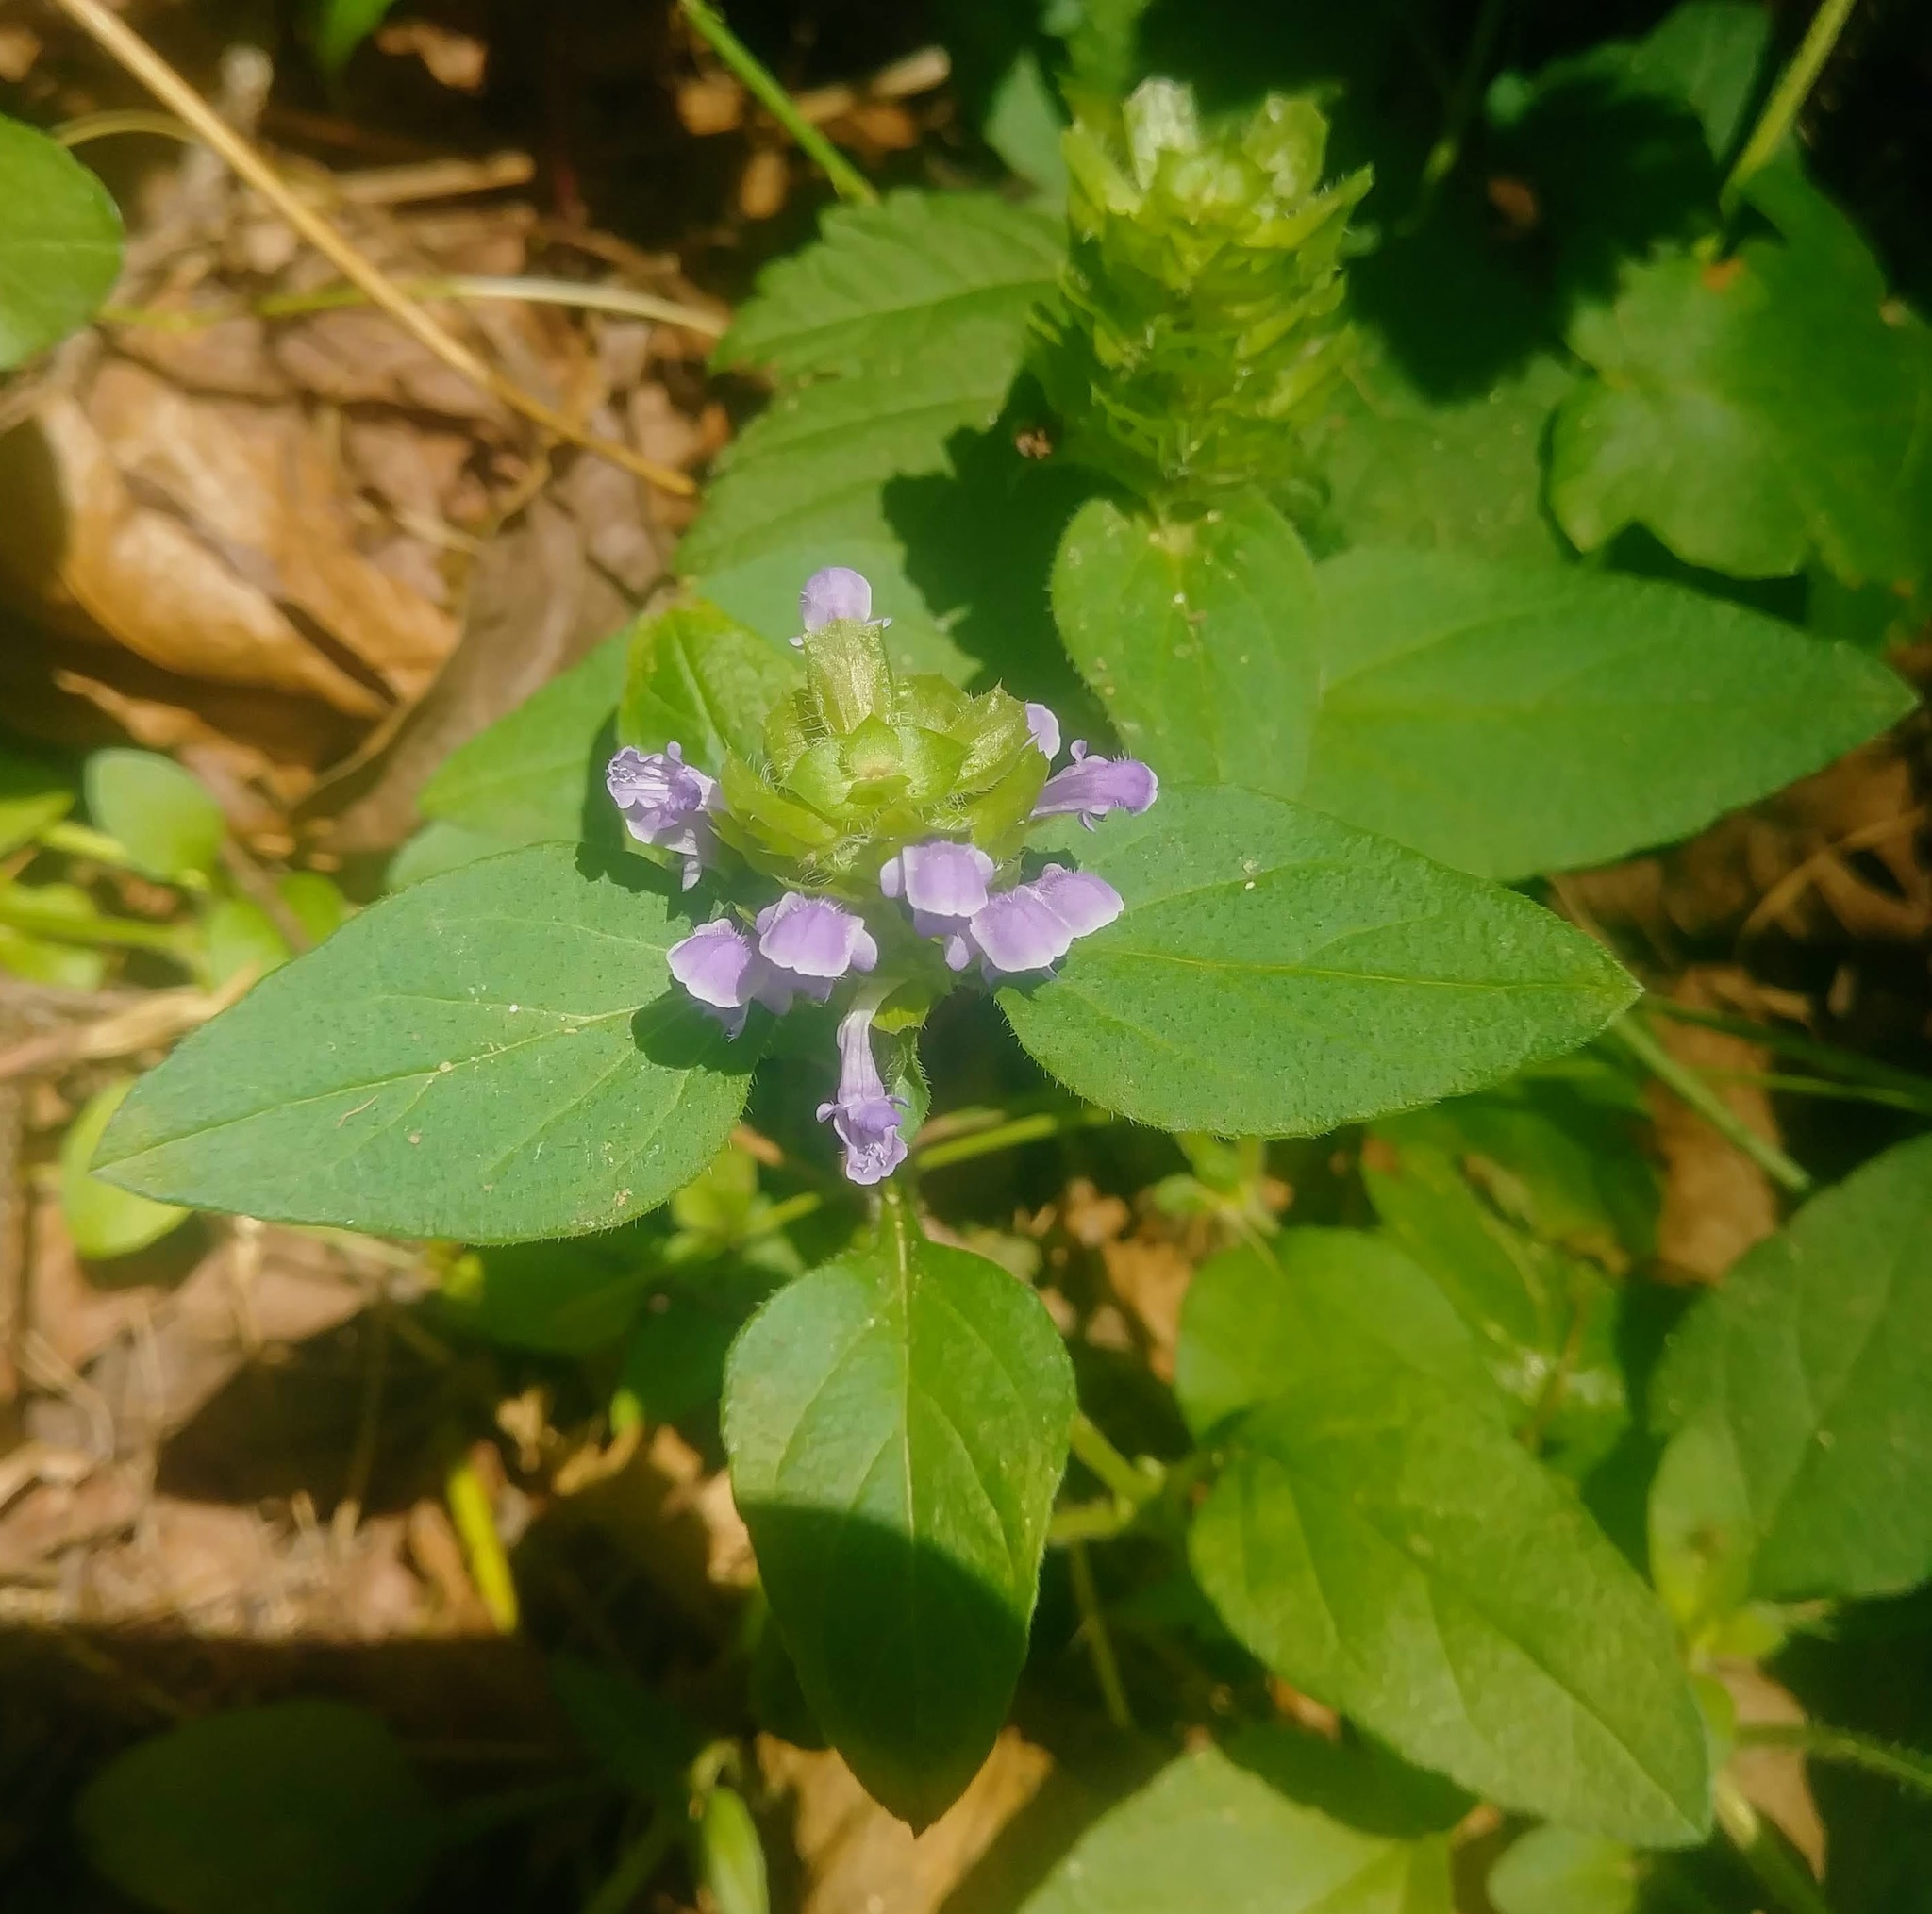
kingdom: Plantae
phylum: Tracheophyta
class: Magnoliopsida
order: Lamiales
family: Lamiaceae
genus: Prunella
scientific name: Prunella vulgaris
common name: Heal-all
